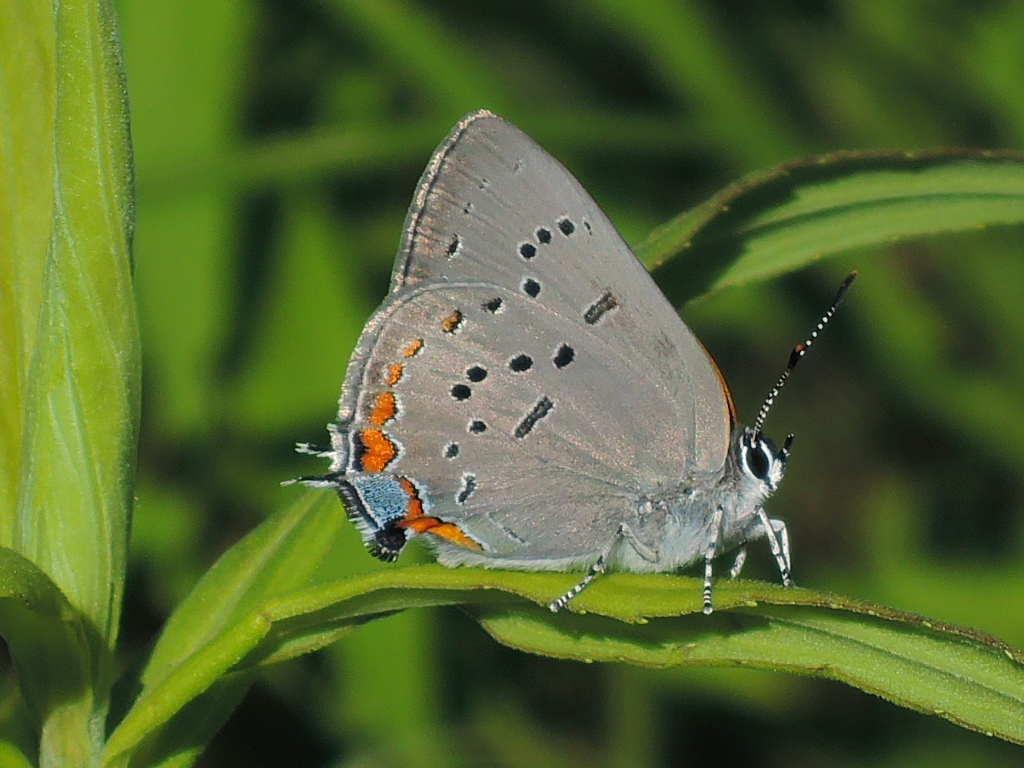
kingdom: Animalia
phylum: Arthropoda
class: Insecta
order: Lepidoptera
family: Lycaenidae
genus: Strymon
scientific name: Strymon acadica
